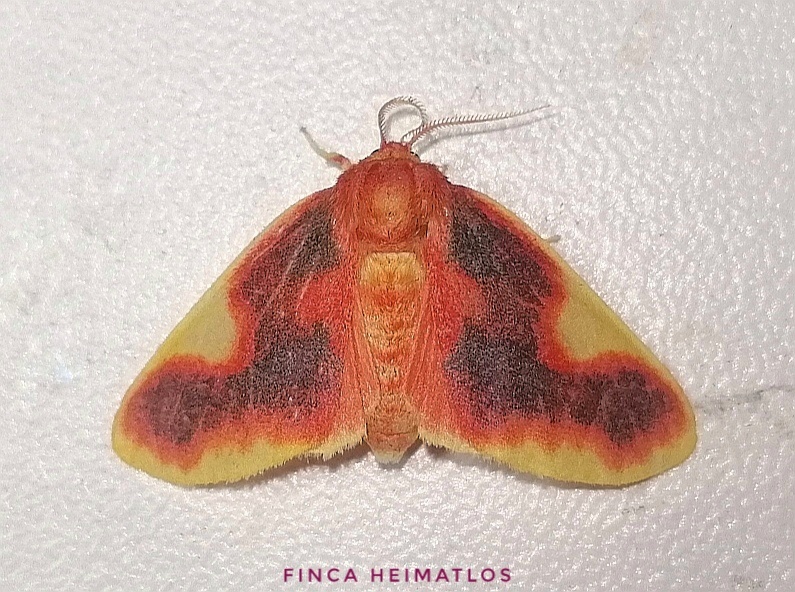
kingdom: Animalia
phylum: Arthropoda
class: Insecta
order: Lepidoptera
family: Erebidae
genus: Neritos
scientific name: Neritos sardanapalus
